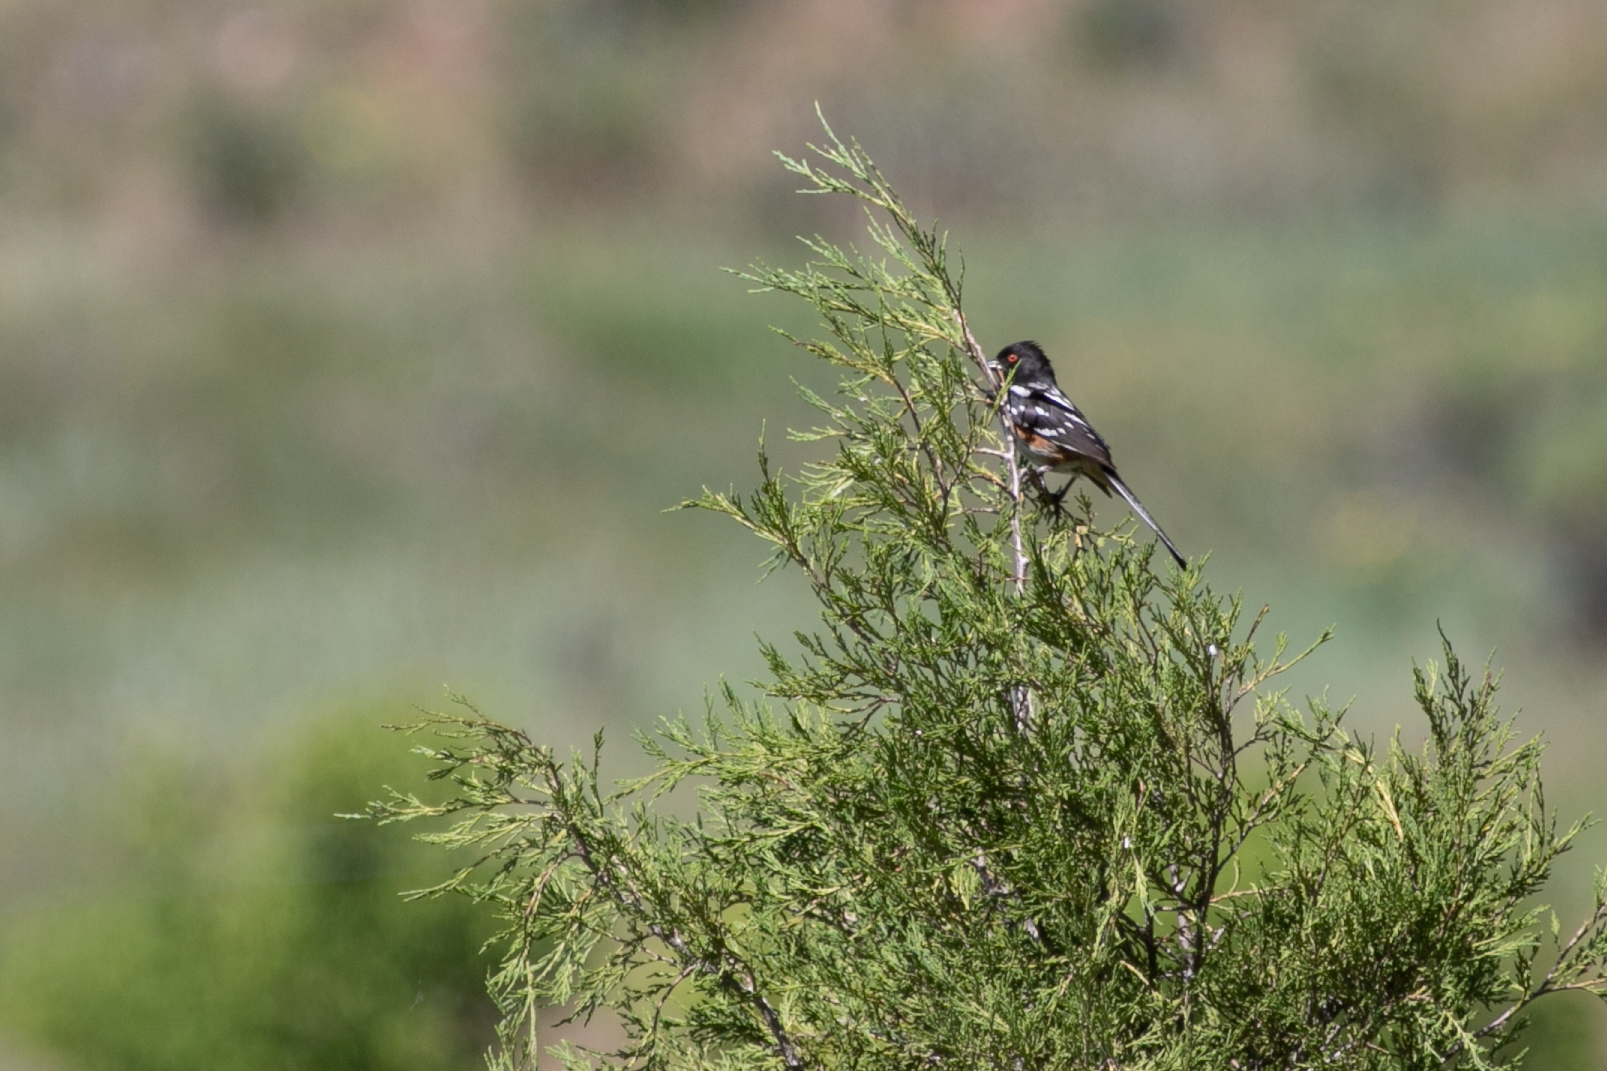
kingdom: Animalia
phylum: Chordata
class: Aves
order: Passeriformes
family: Passerellidae
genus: Pipilo
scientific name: Pipilo maculatus
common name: Spotted towhee
